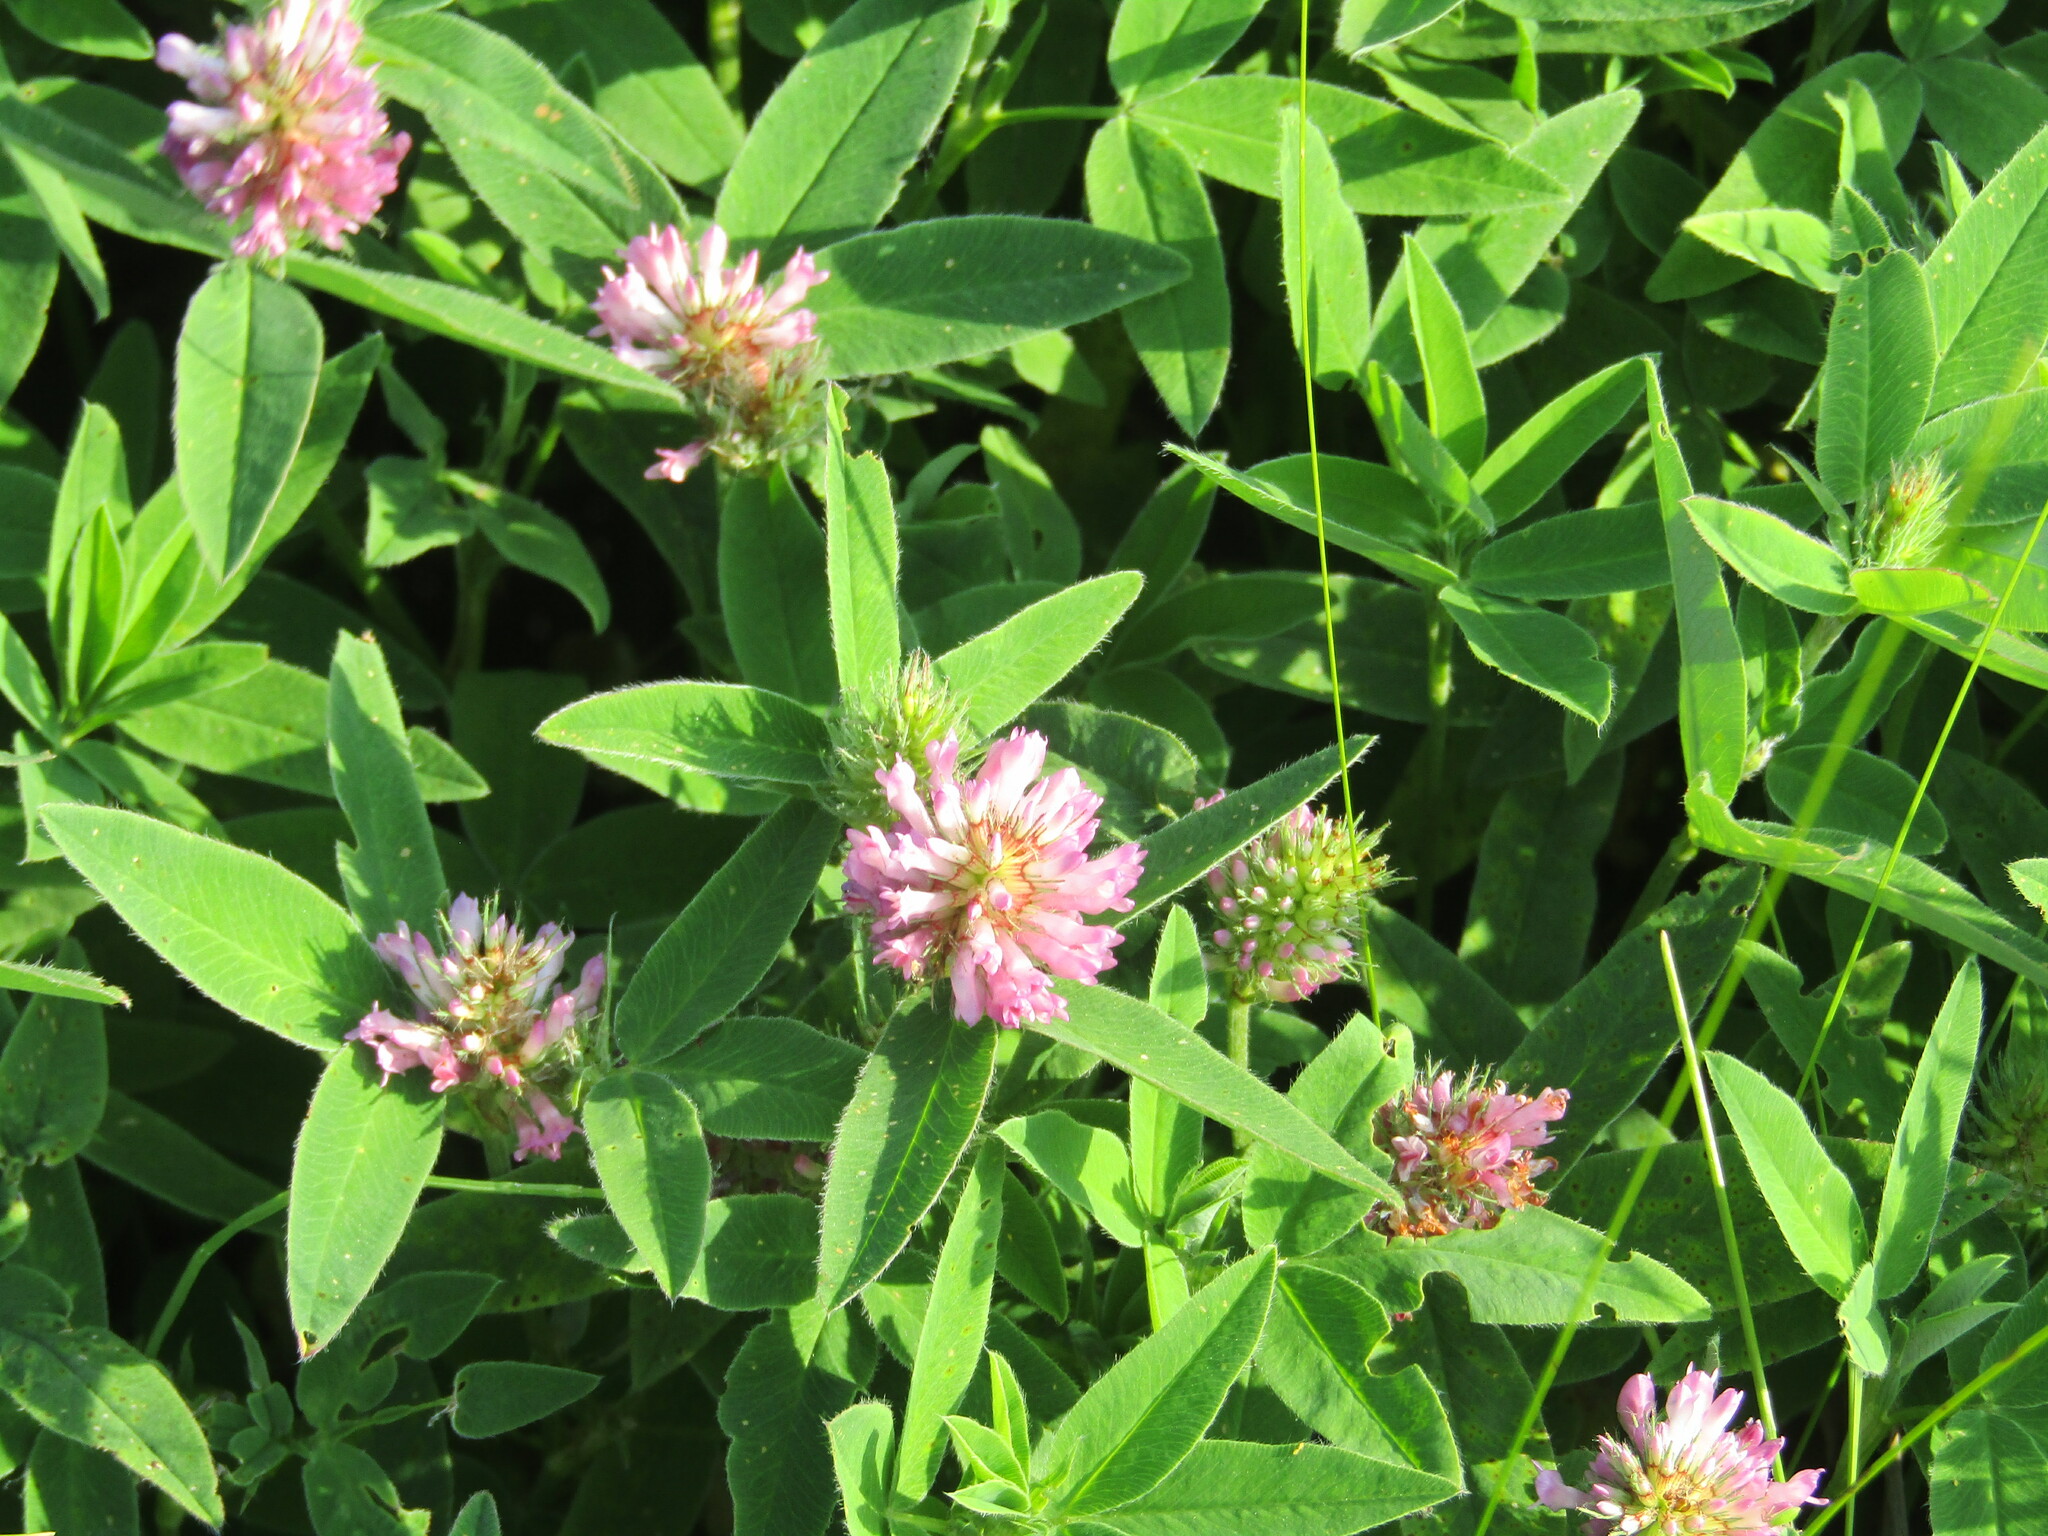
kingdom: Plantae
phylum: Tracheophyta
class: Magnoliopsida
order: Fabales
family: Fabaceae
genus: Trifolium
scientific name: Trifolium medium
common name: Zigzag clover
